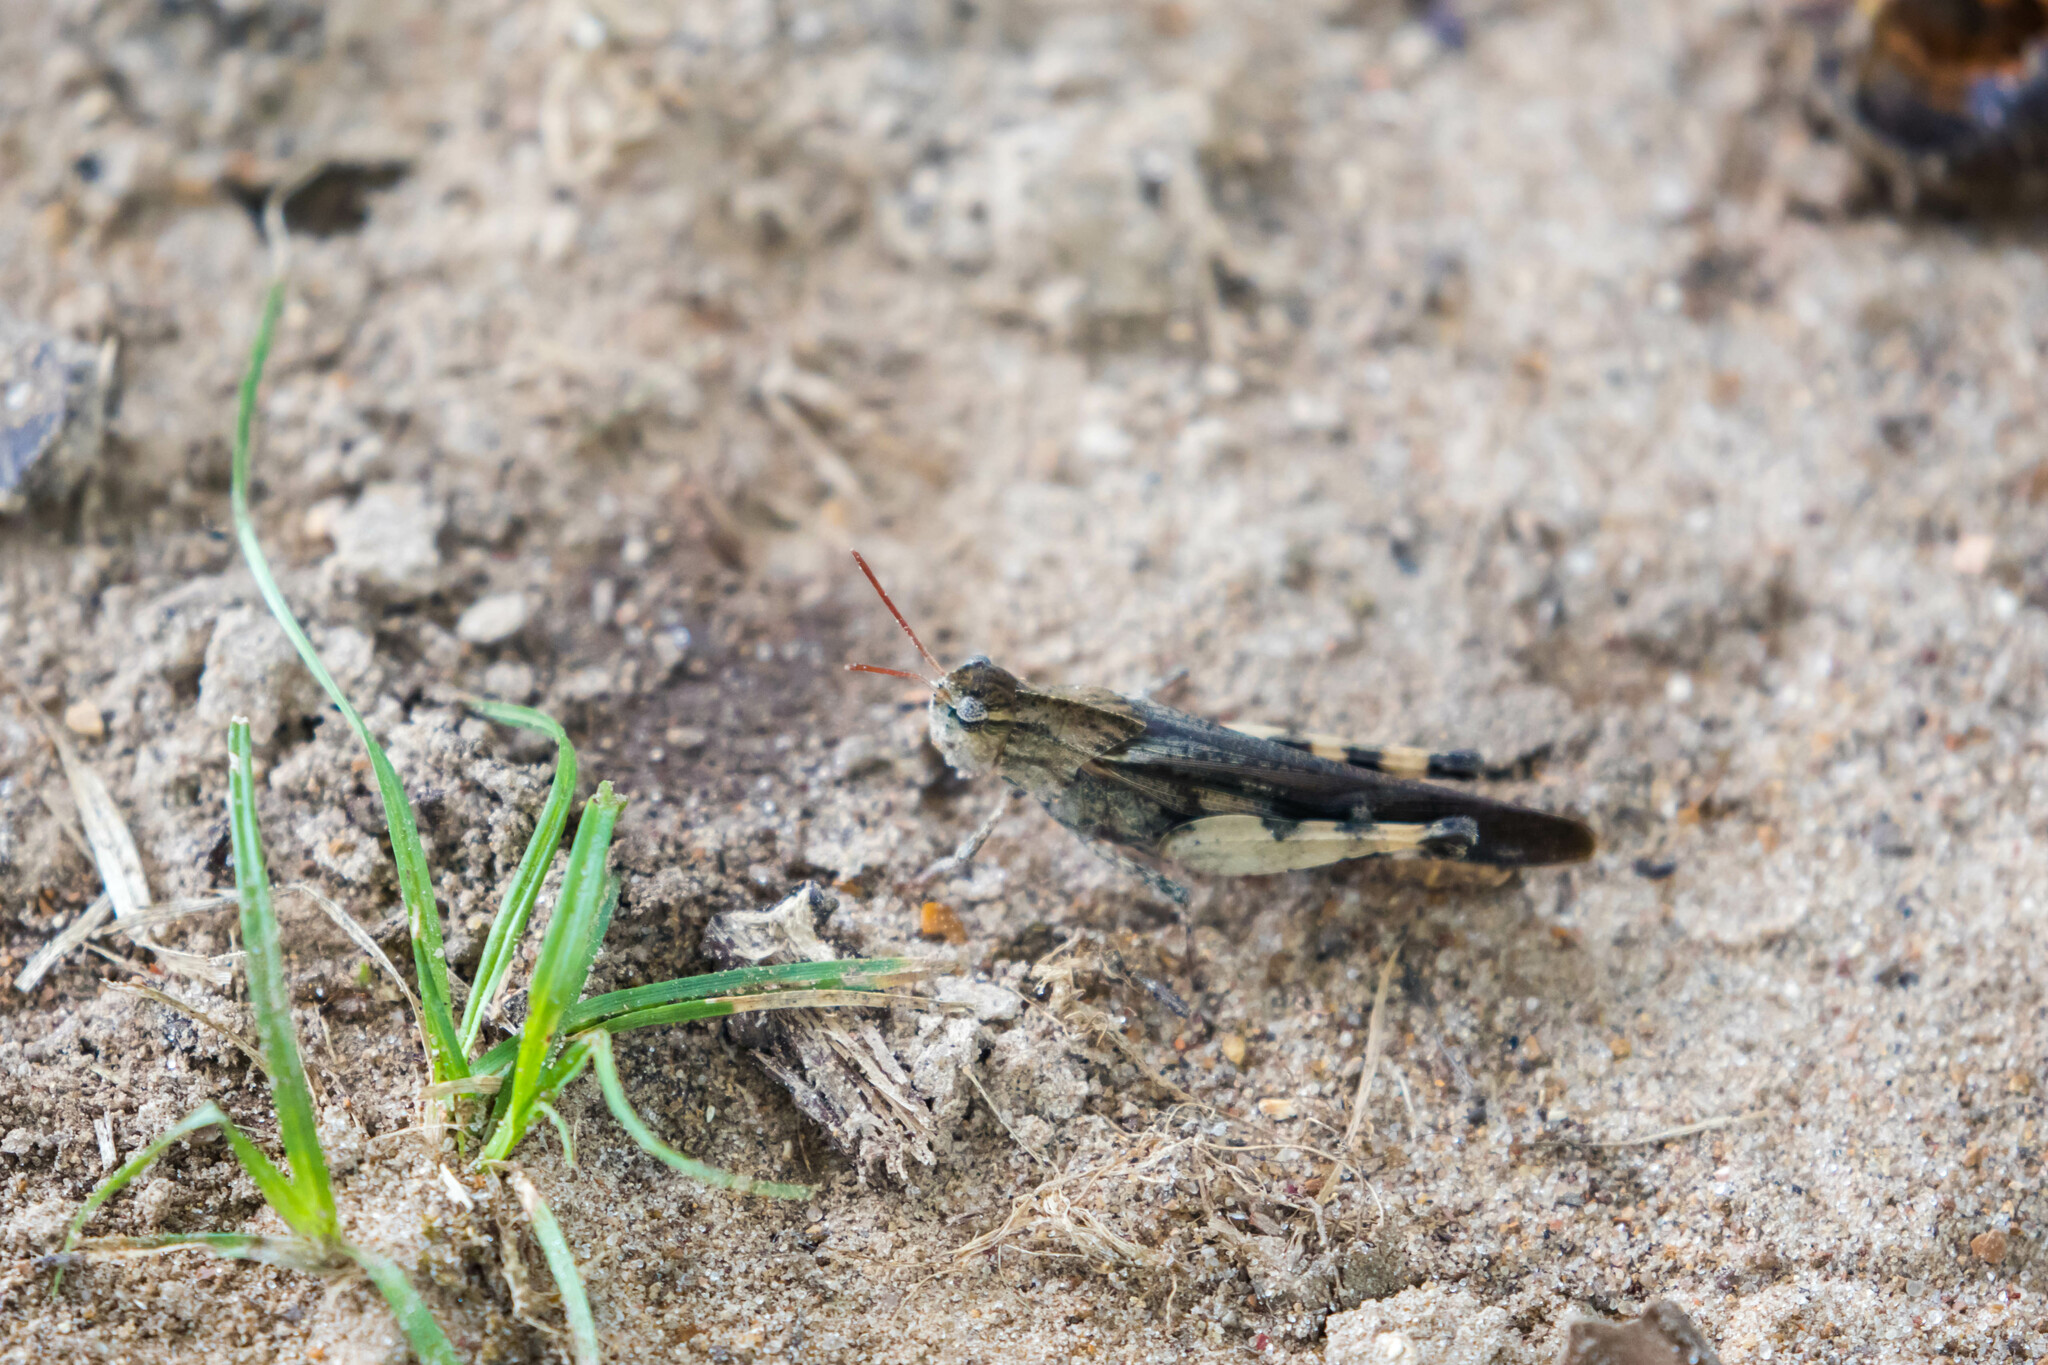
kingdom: Animalia
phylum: Arthropoda
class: Insecta
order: Orthoptera
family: Acrididae
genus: Chortophaga
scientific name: Chortophaga viridifasciata
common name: Green-striped grasshopper
